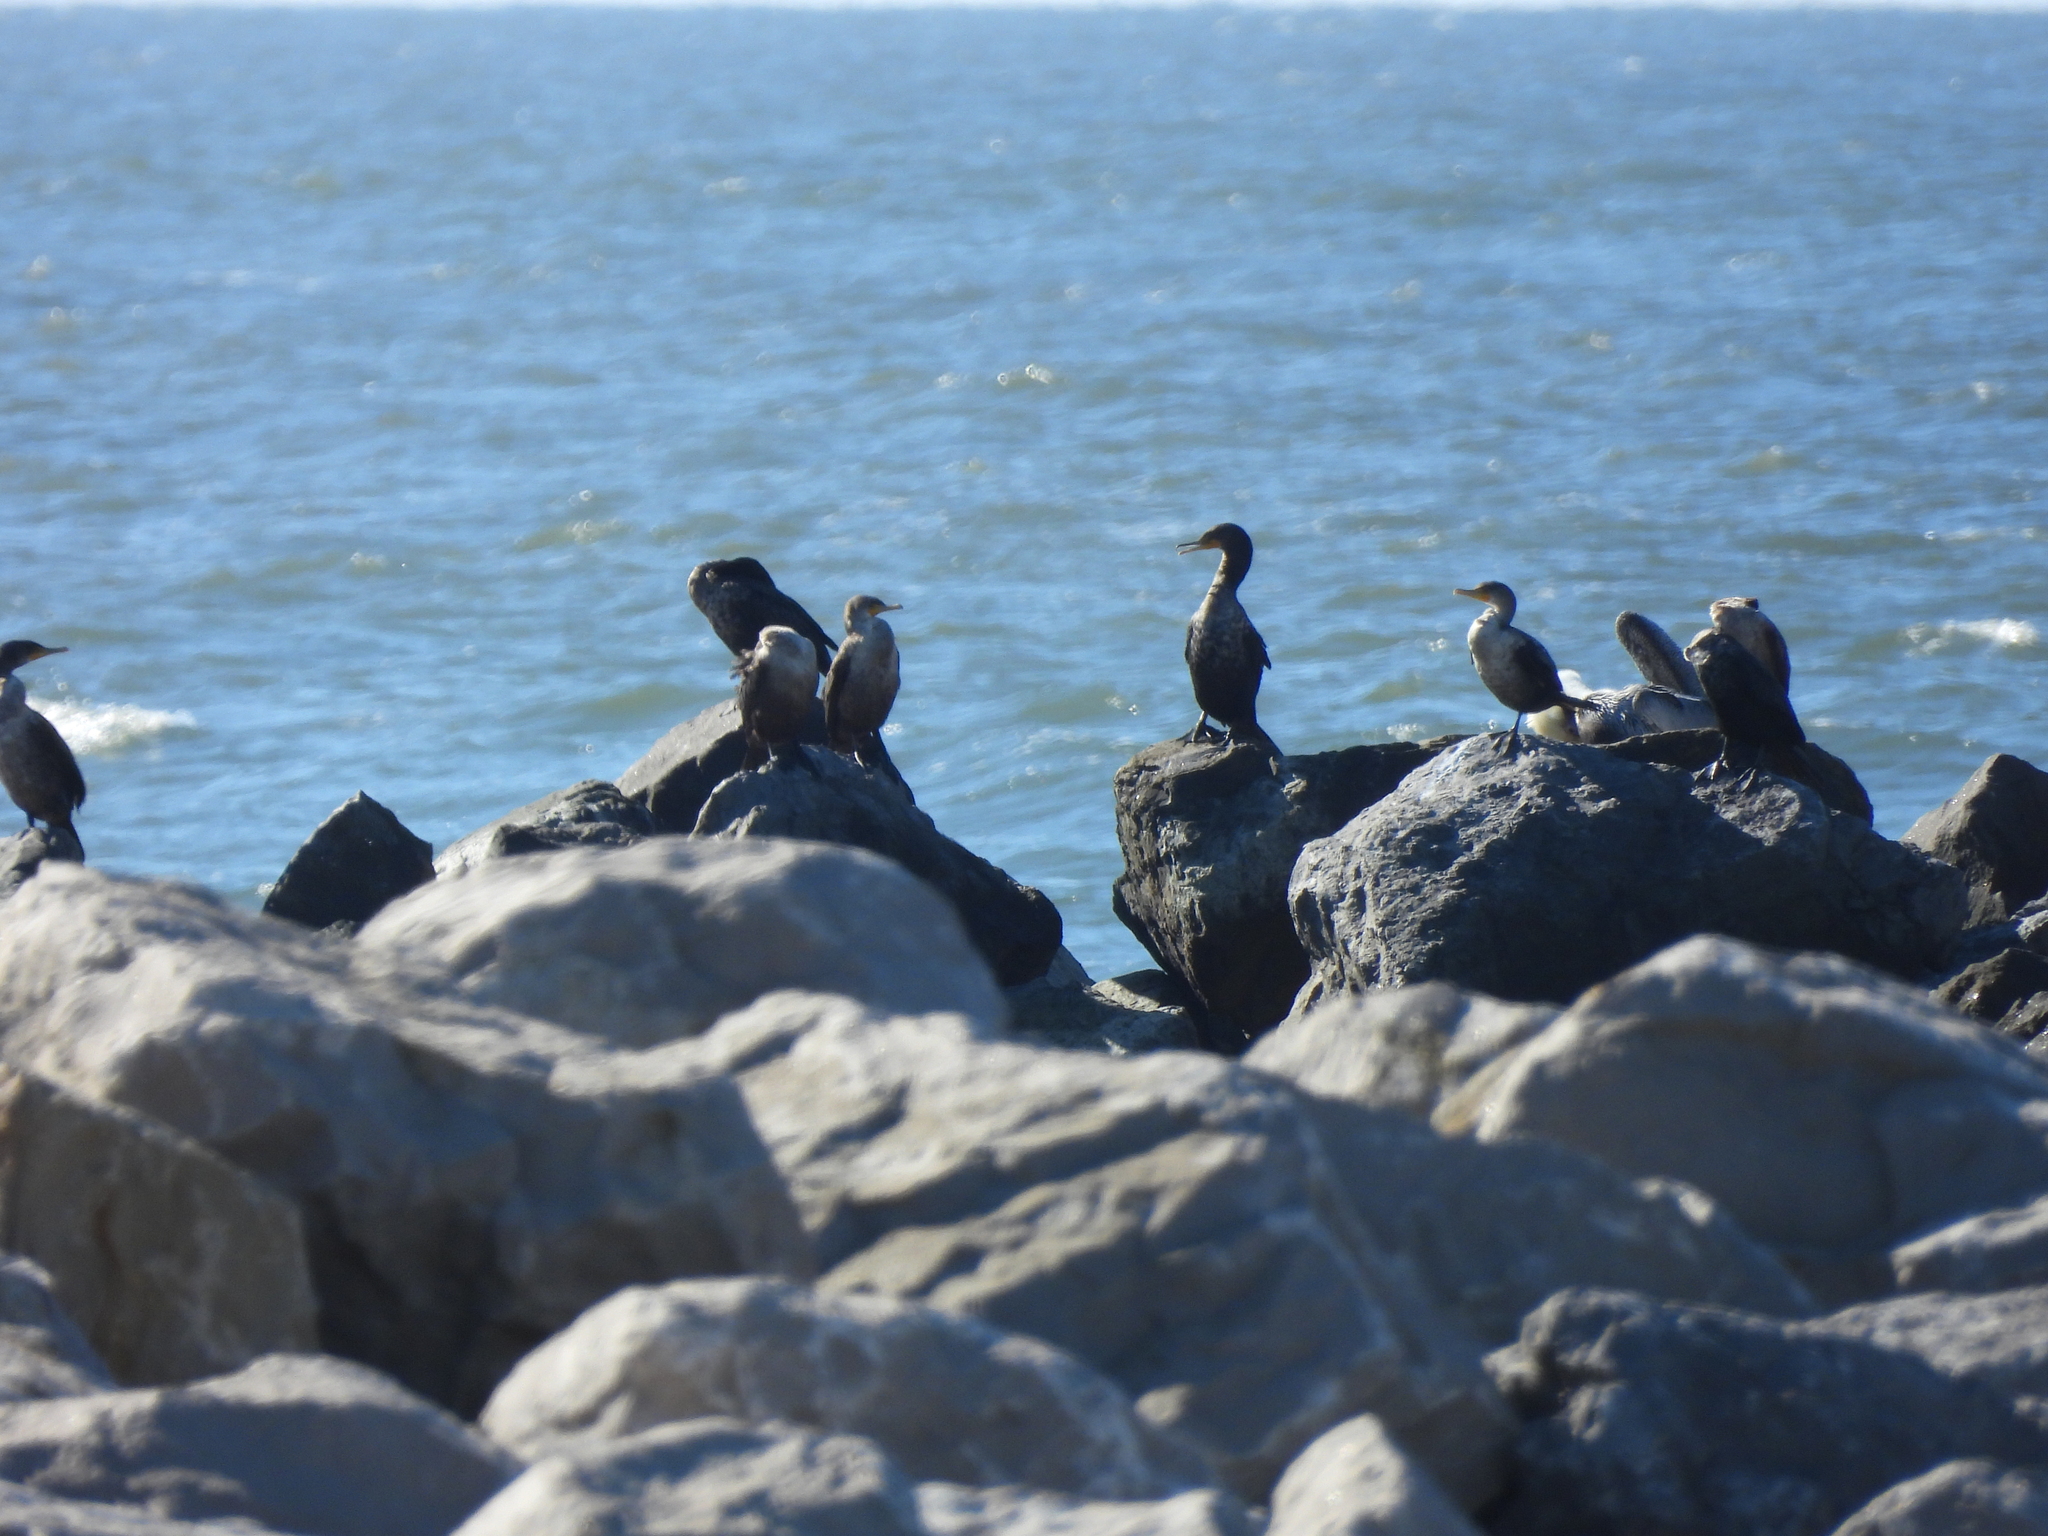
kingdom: Animalia
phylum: Chordata
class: Aves
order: Suliformes
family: Phalacrocoracidae
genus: Phalacrocorax
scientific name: Phalacrocorax auritus
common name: Double-crested cormorant
